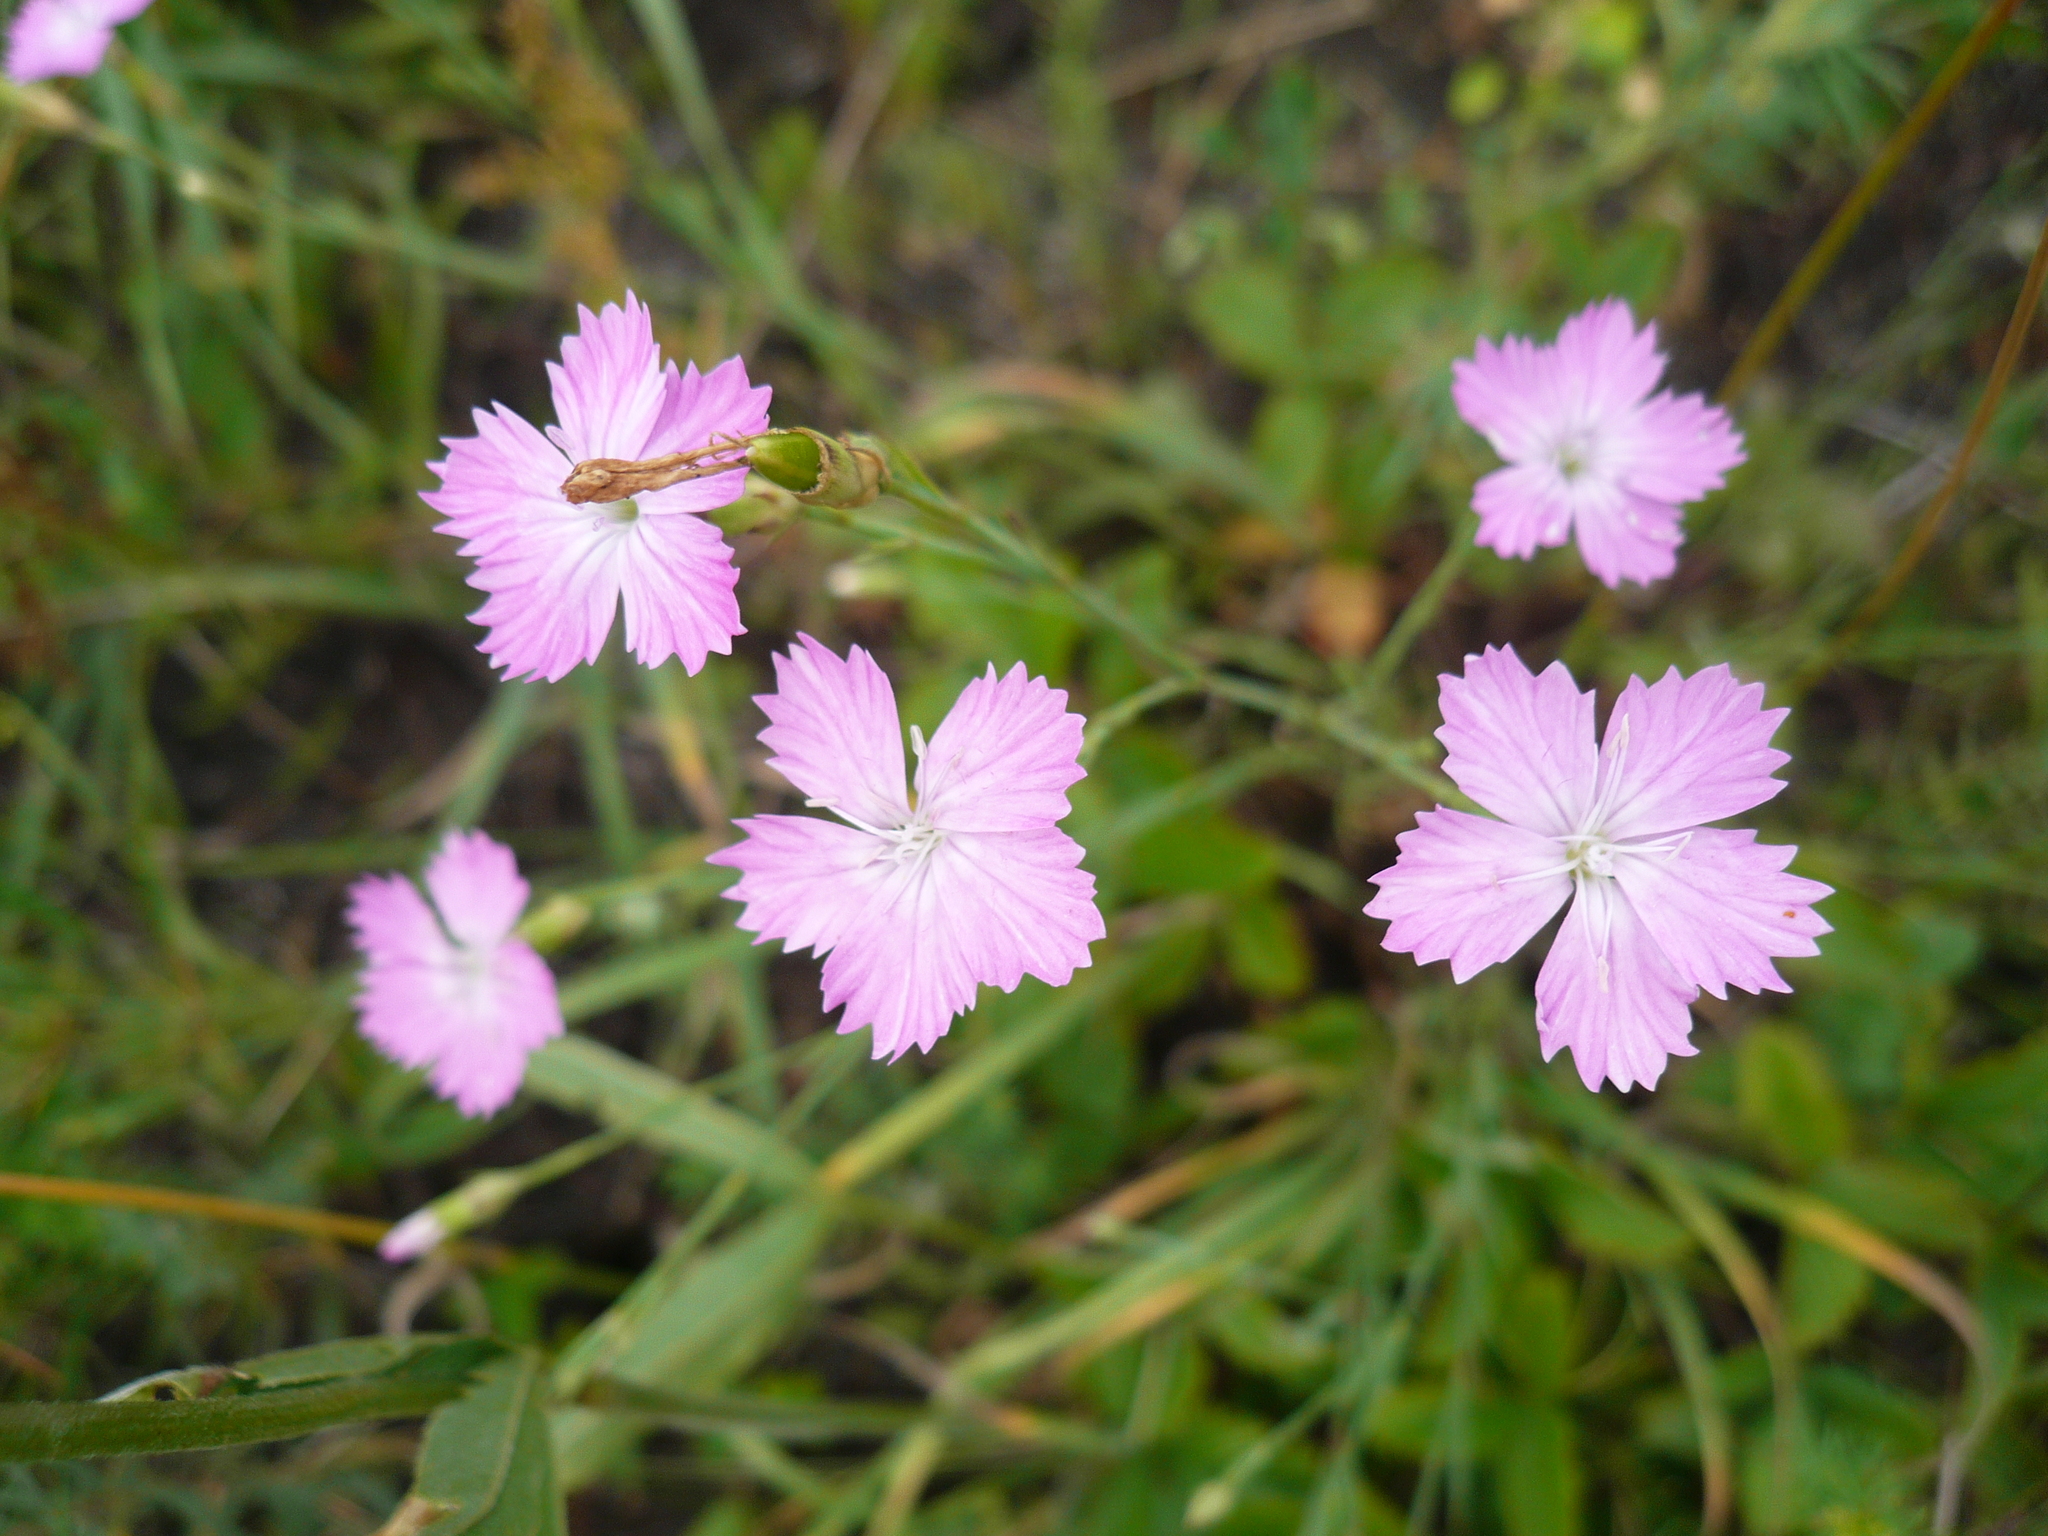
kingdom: Plantae
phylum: Tracheophyta
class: Magnoliopsida
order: Caryophyllales
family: Caryophyllaceae
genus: Dianthus
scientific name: Dianthus campestris
